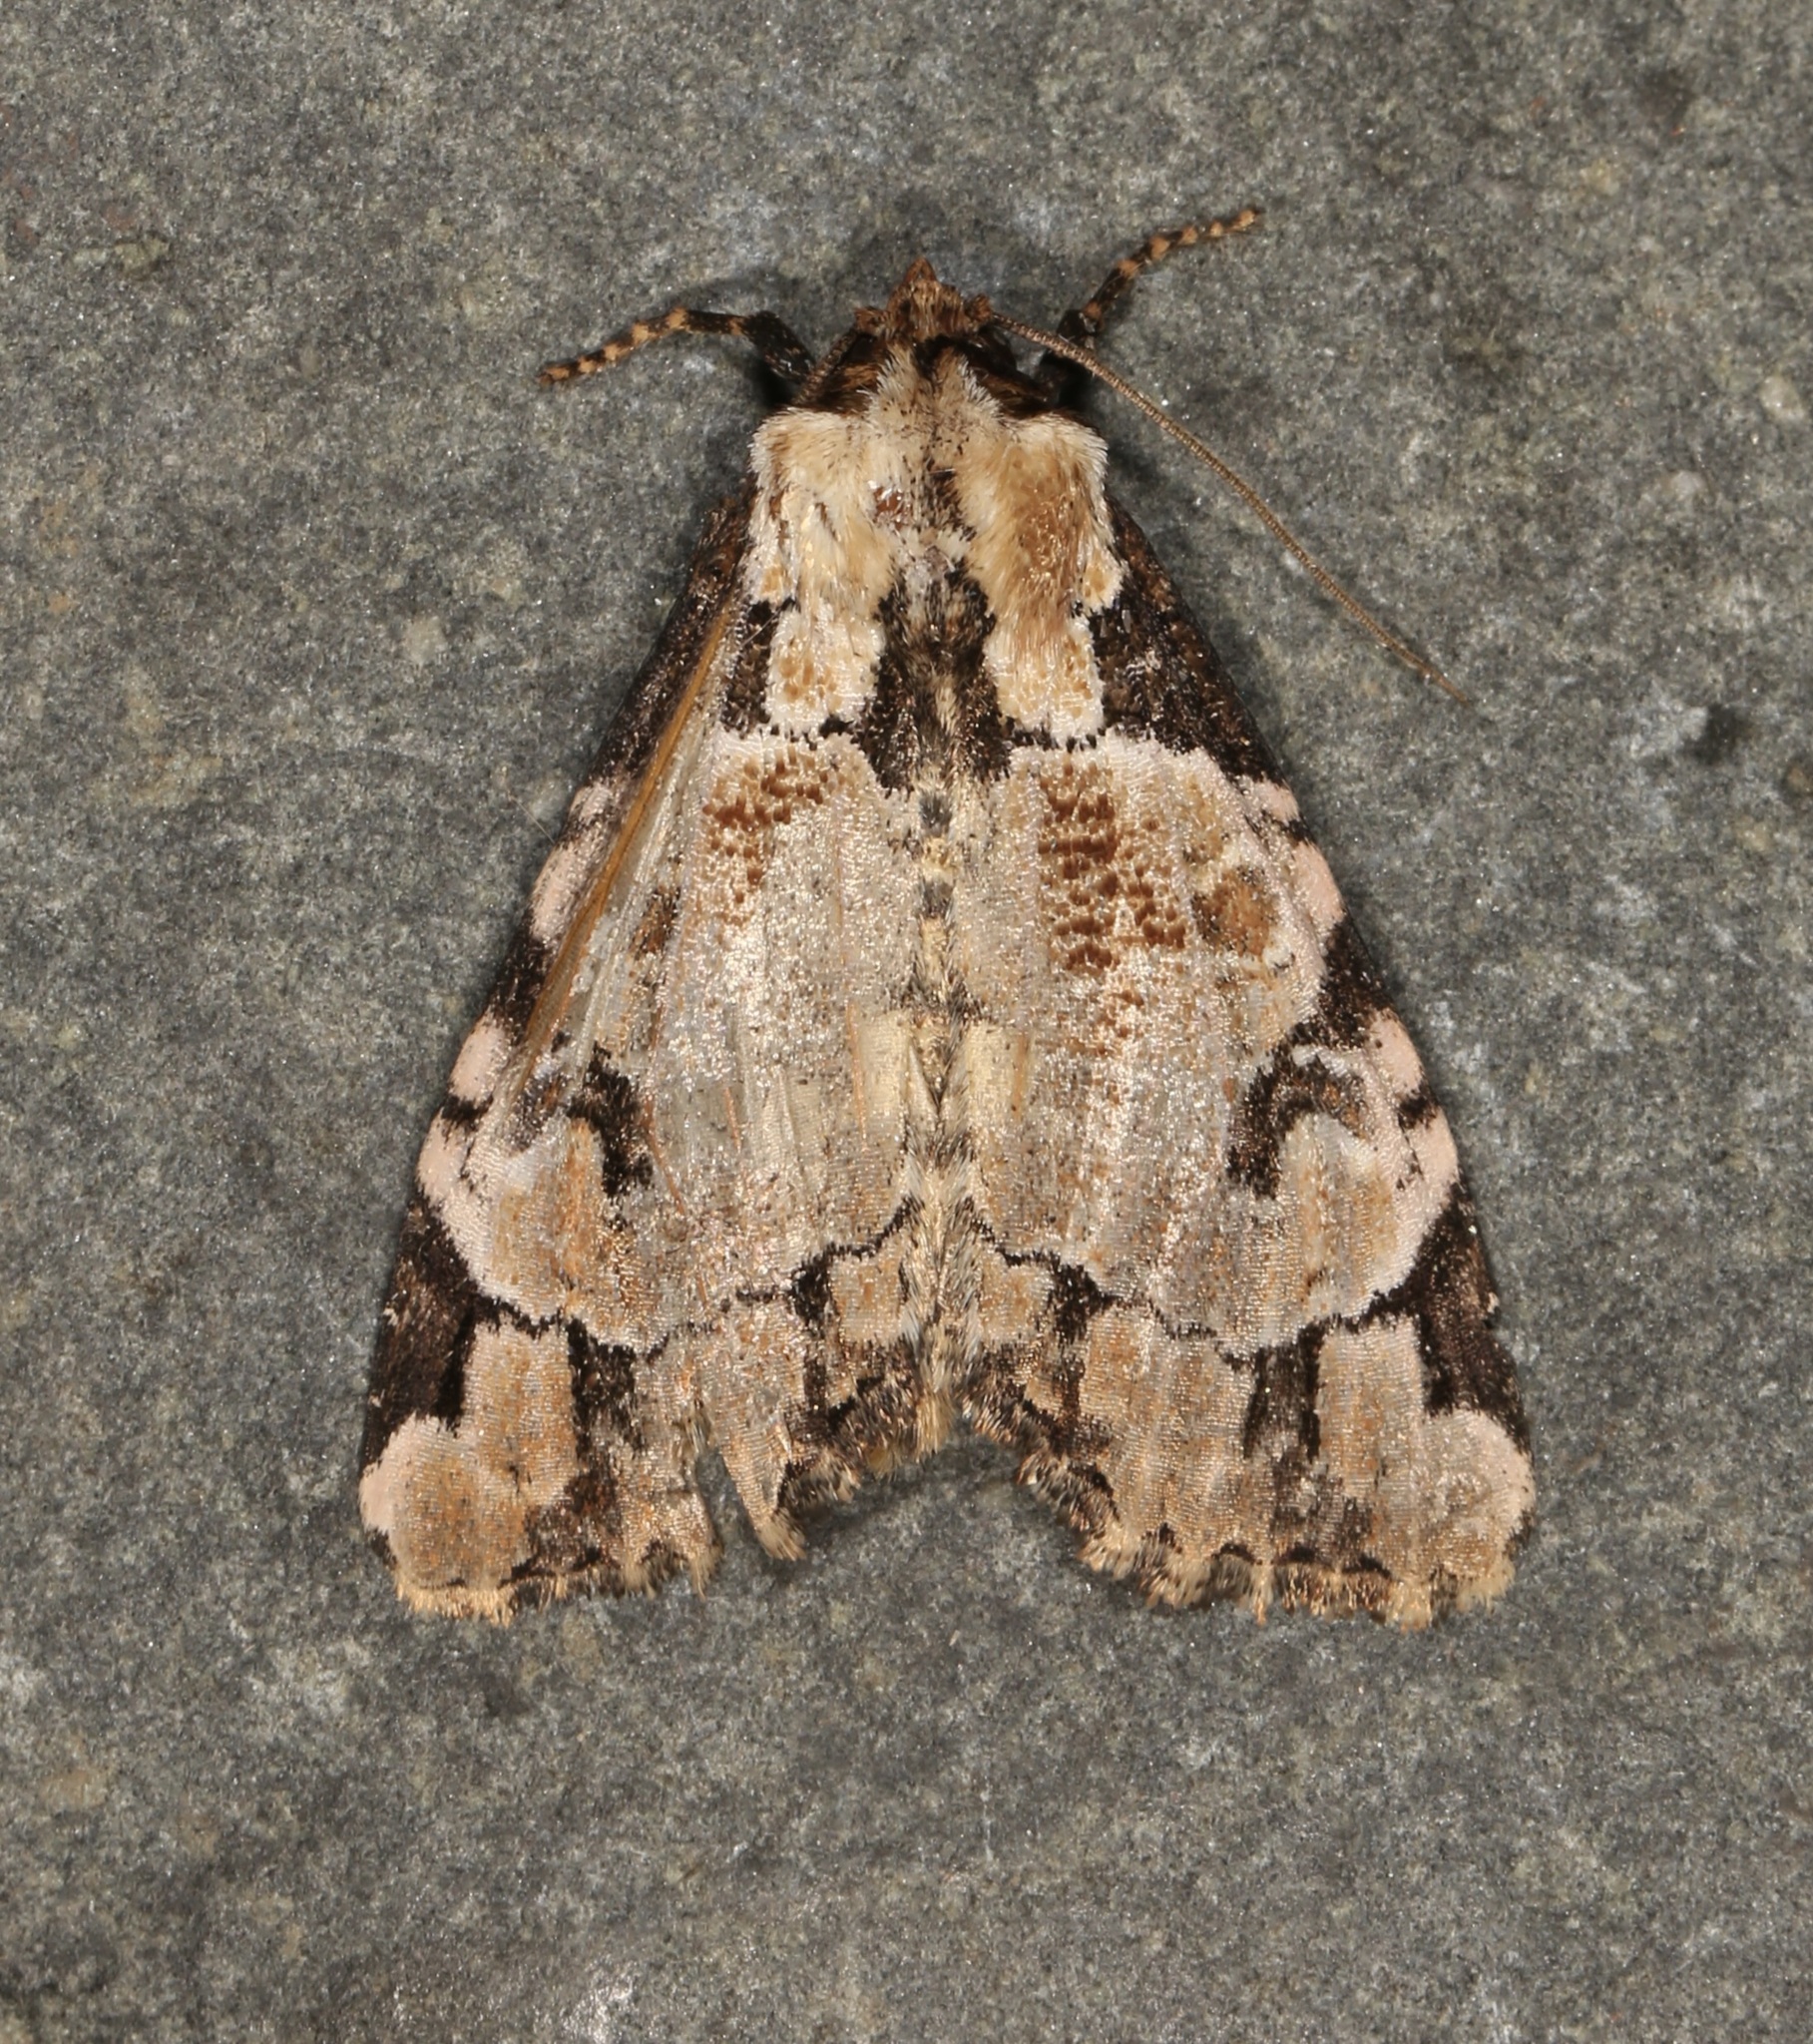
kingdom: Animalia
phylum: Arthropoda
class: Insecta
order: Lepidoptera
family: Noctuidae
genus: Stibaera
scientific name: Stibaera thyatiroides
